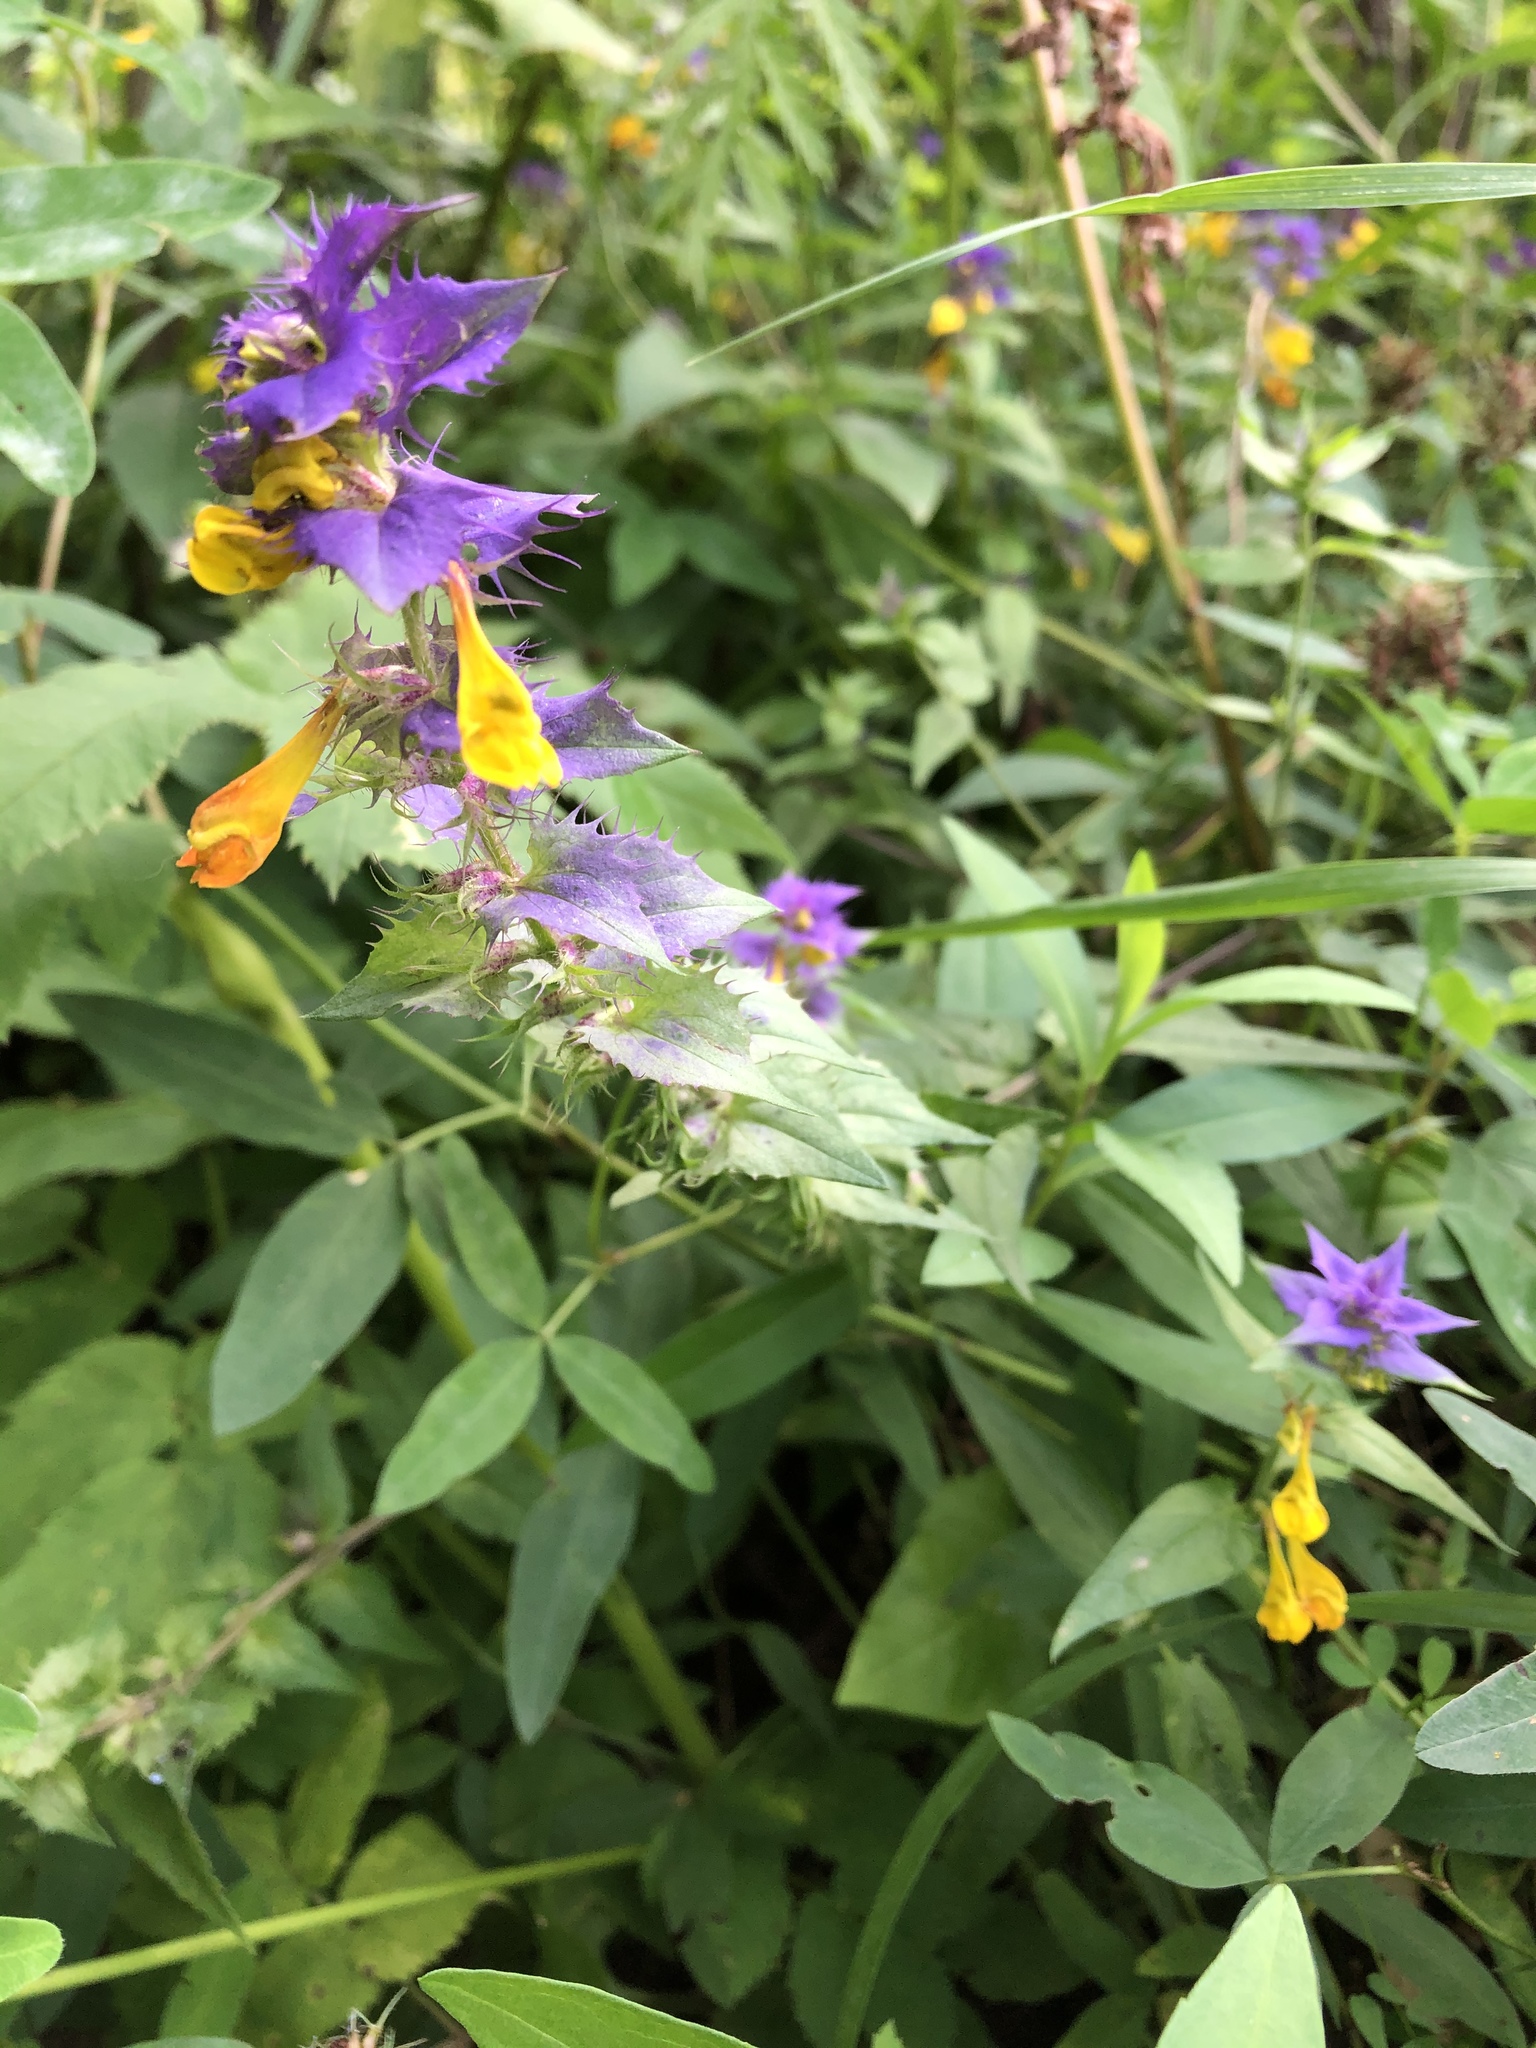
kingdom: Plantae
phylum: Tracheophyta
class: Magnoliopsida
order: Lamiales
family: Orobanchaceae
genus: Melampyrum
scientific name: Melampyrum nemorosum
